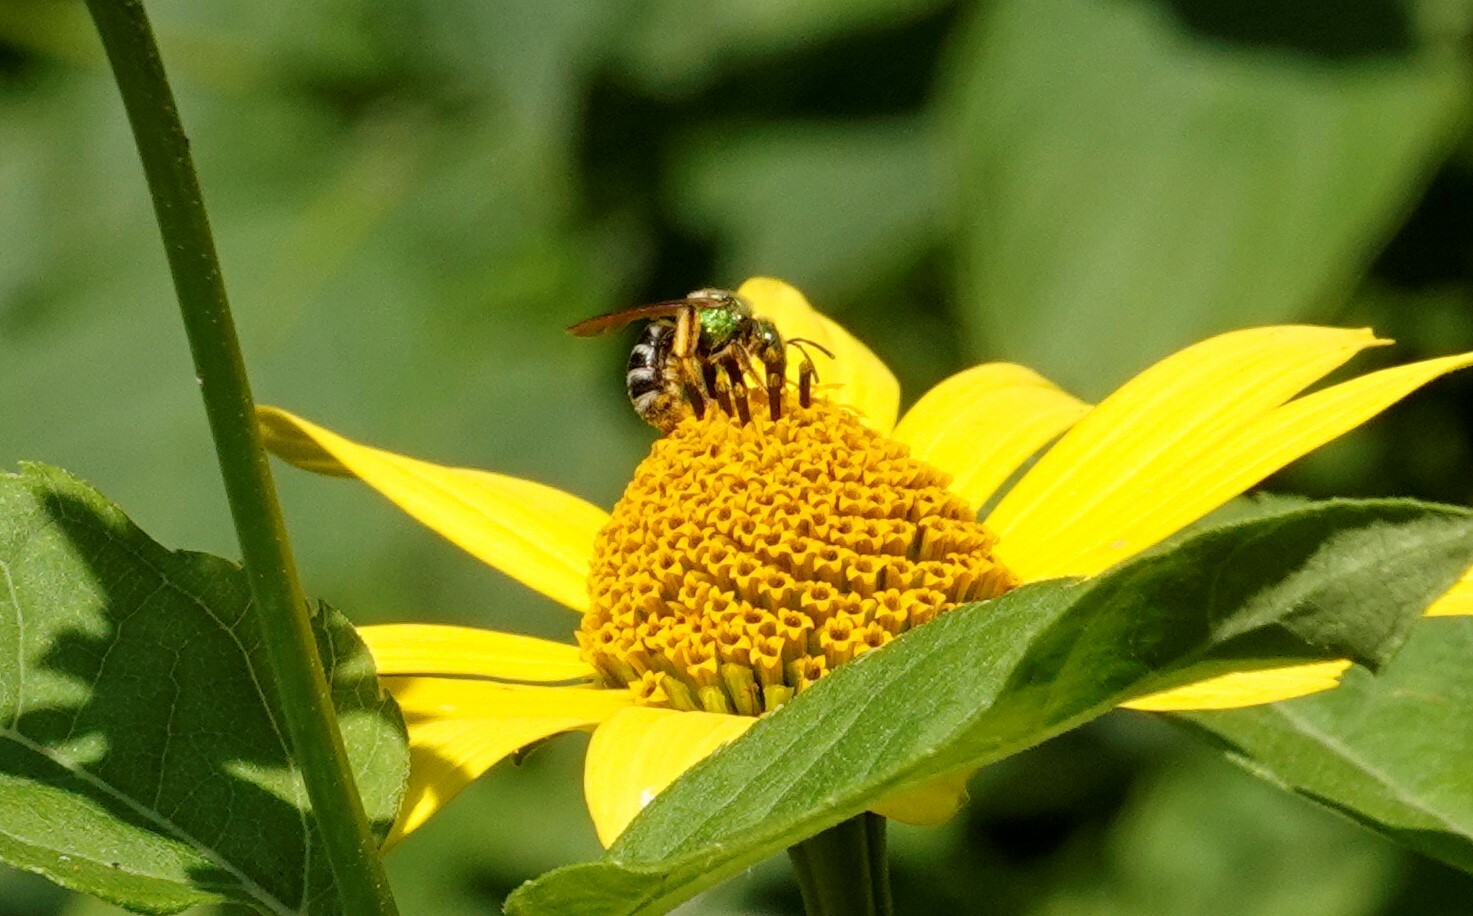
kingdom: Animalia
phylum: Arthropoda
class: Insecta
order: Hymenoptera
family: Halictidae
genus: Agapostemon
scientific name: Agapostemon virescens
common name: Bicolored striped sweat bee
